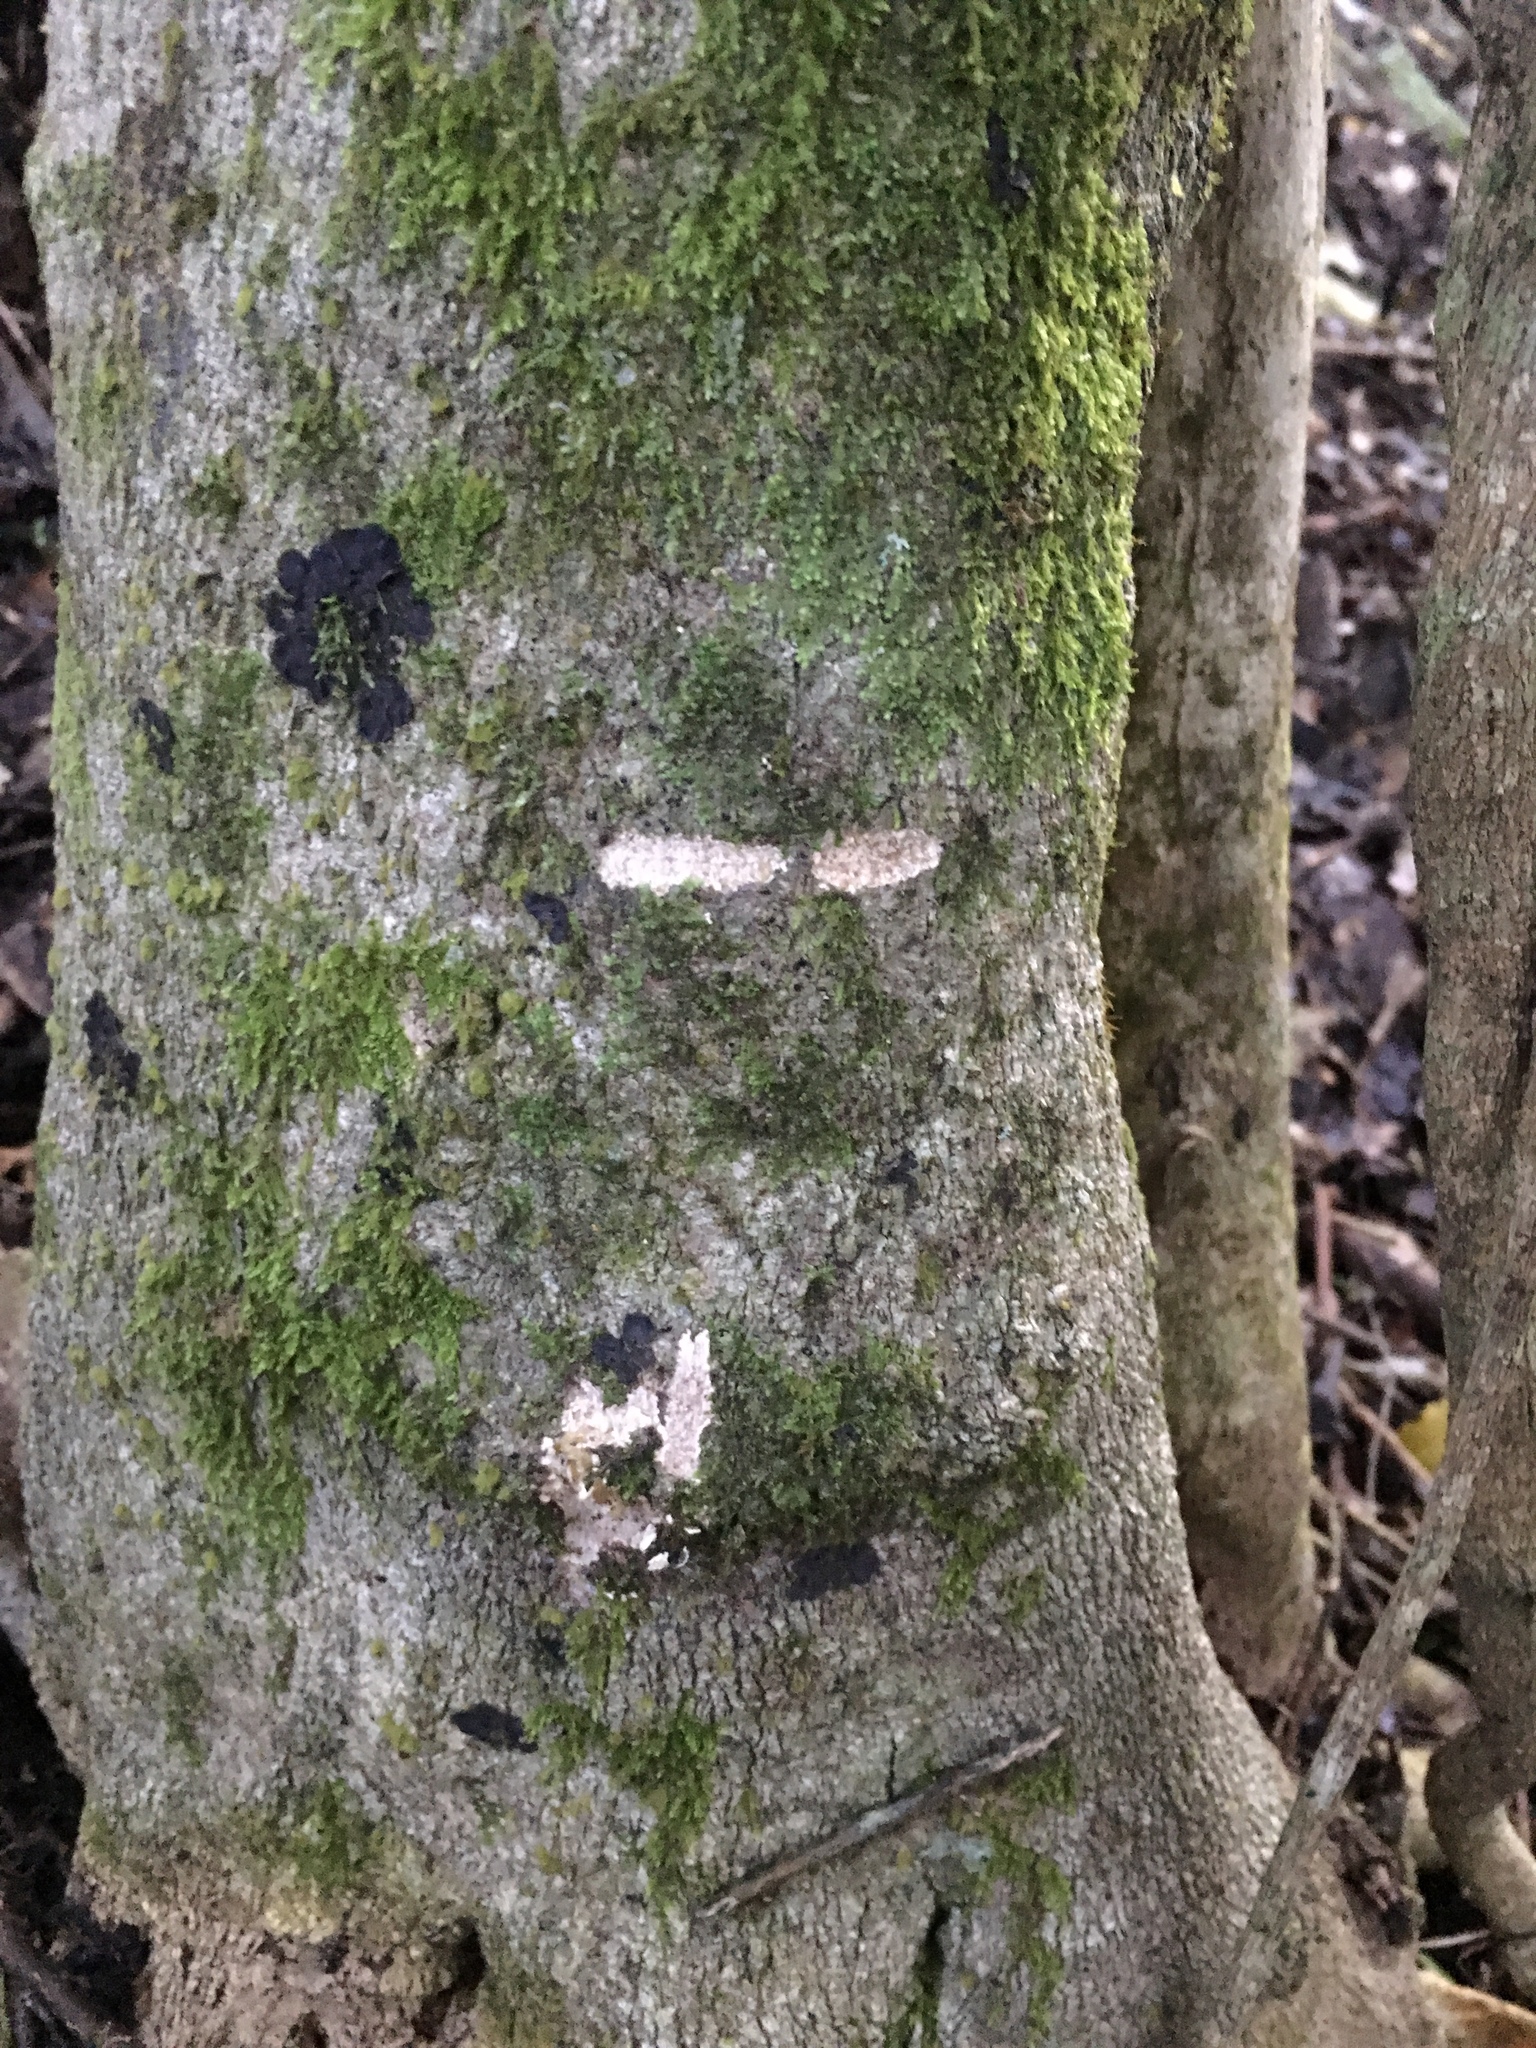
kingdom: Animalia
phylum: Chordata
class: Mammalia
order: Diprotodontia
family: Phalangeridae
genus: Trichosurus
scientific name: Trichosurus vulpecula
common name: Common brushtail
